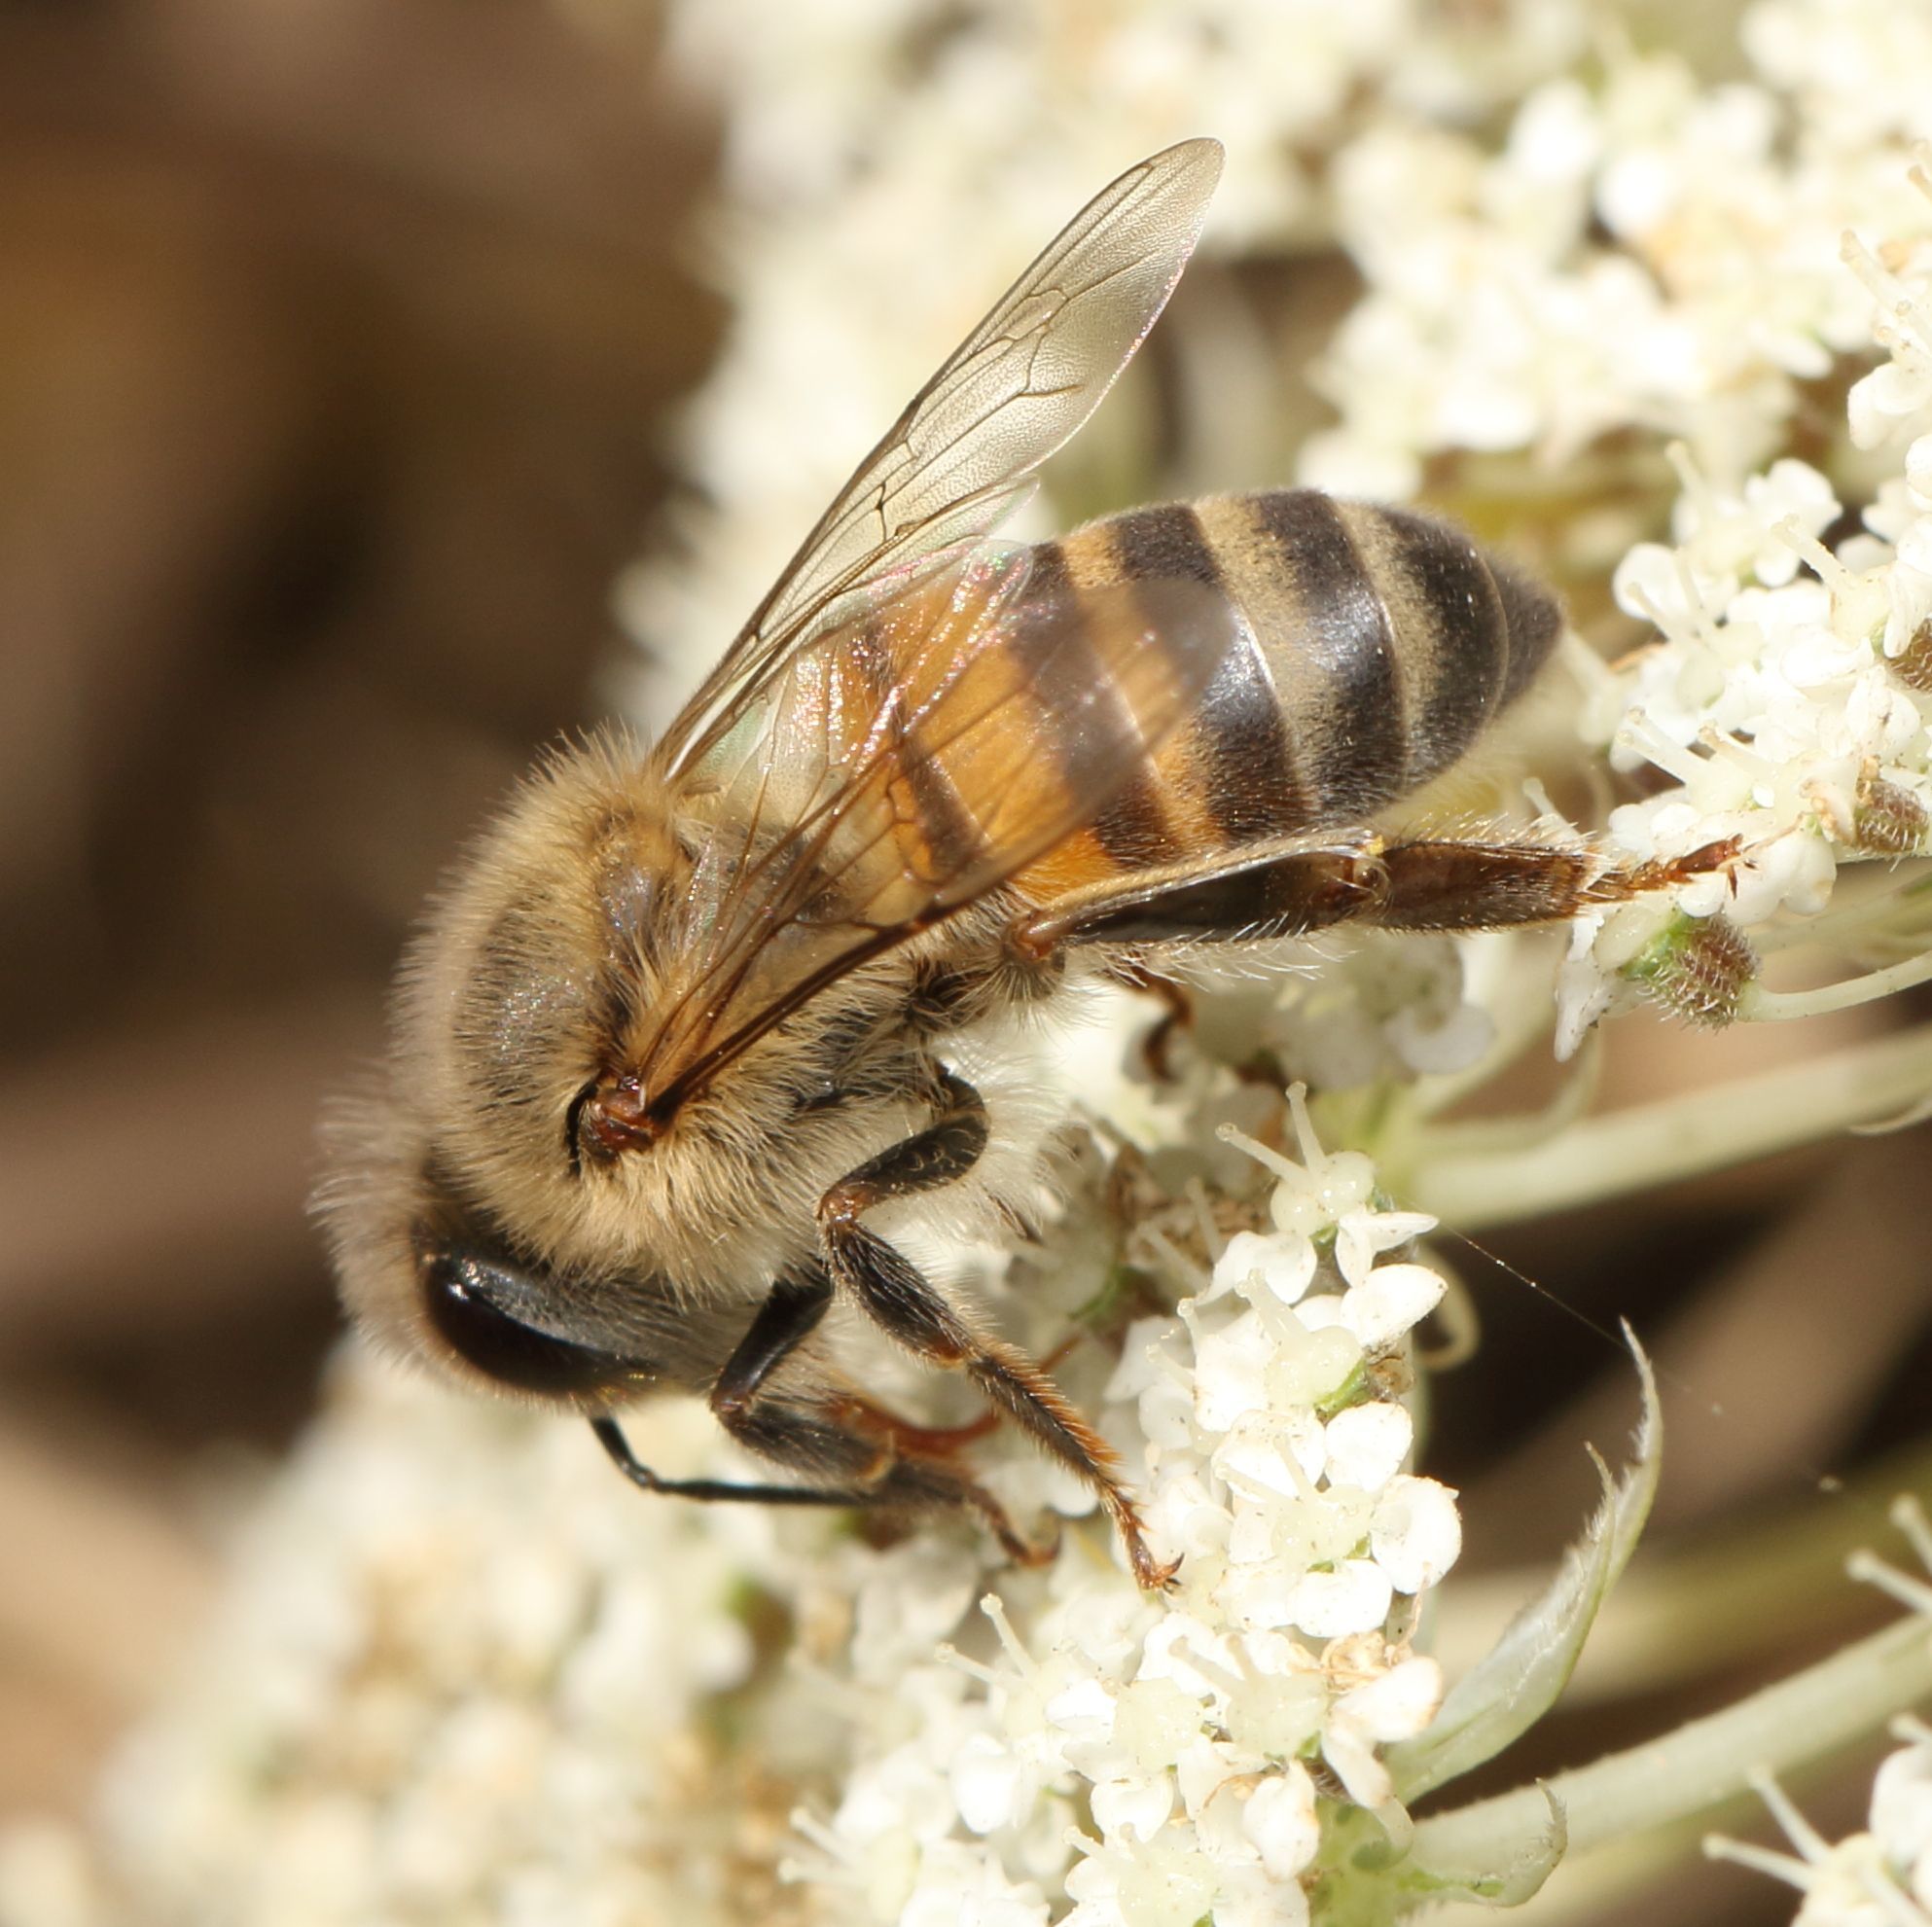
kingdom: Animalia
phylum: Arthropoda
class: Insecta
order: Hymenoptera
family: Apidae
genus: Apis
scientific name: Apis mellifera
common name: Honey bee
